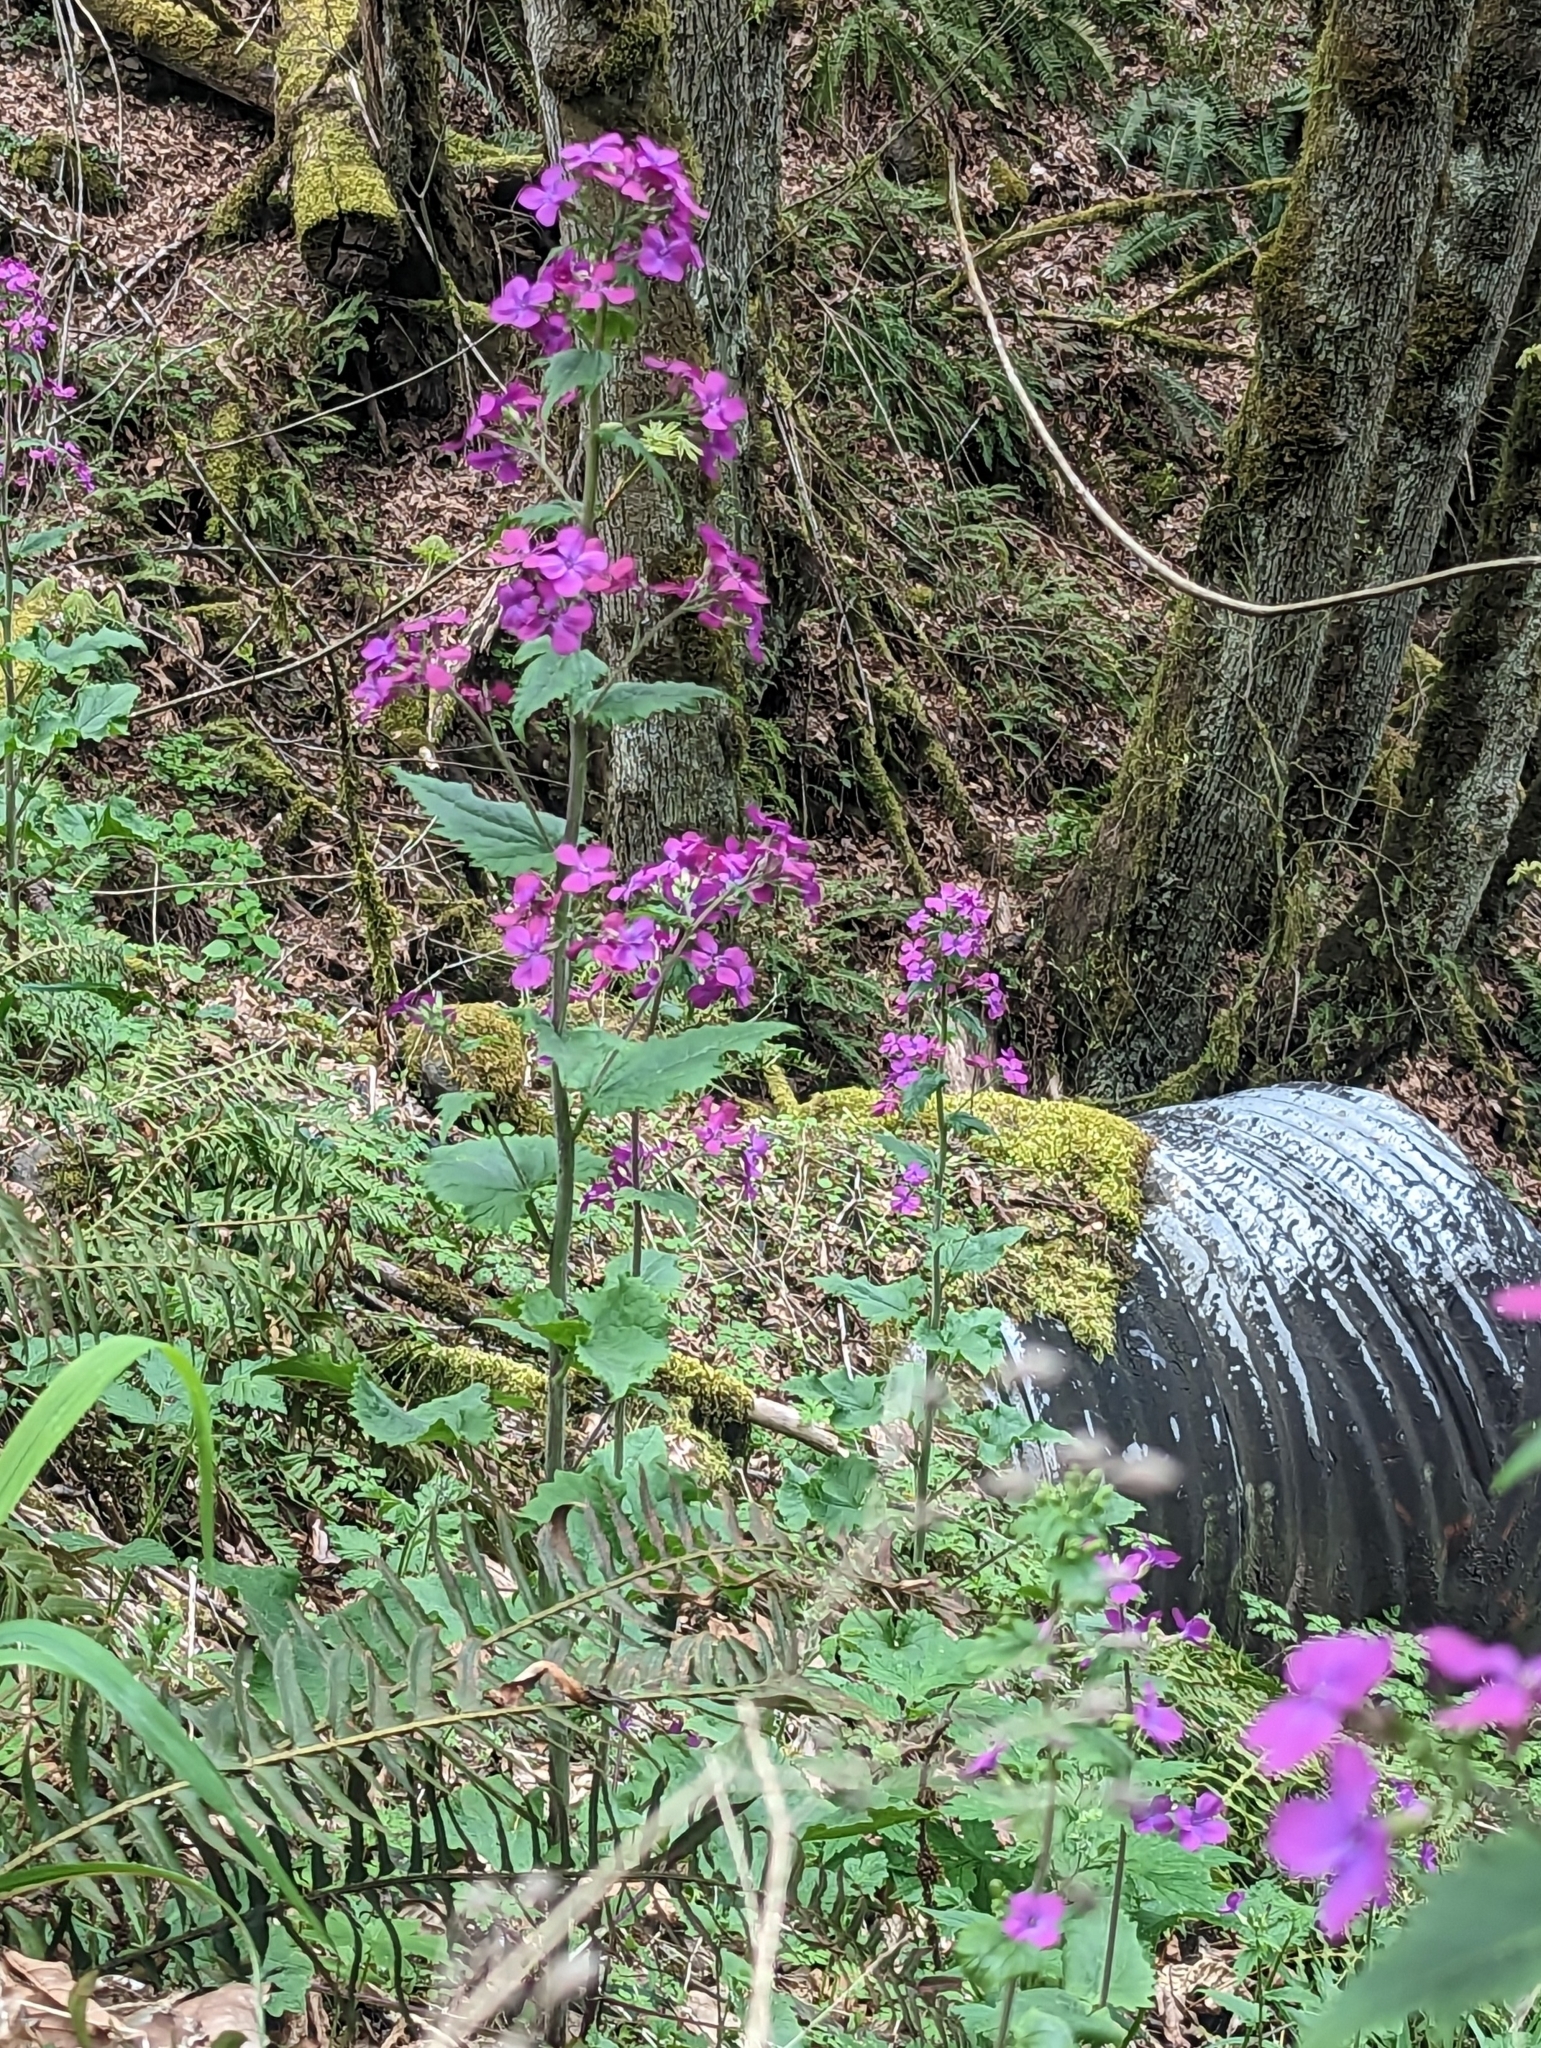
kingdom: Plantae
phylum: Tracheophyta
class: Magnoliopsida
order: Brassicales
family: Brassicaceae
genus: Lunaria
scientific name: Lunaria annua
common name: Honesty
